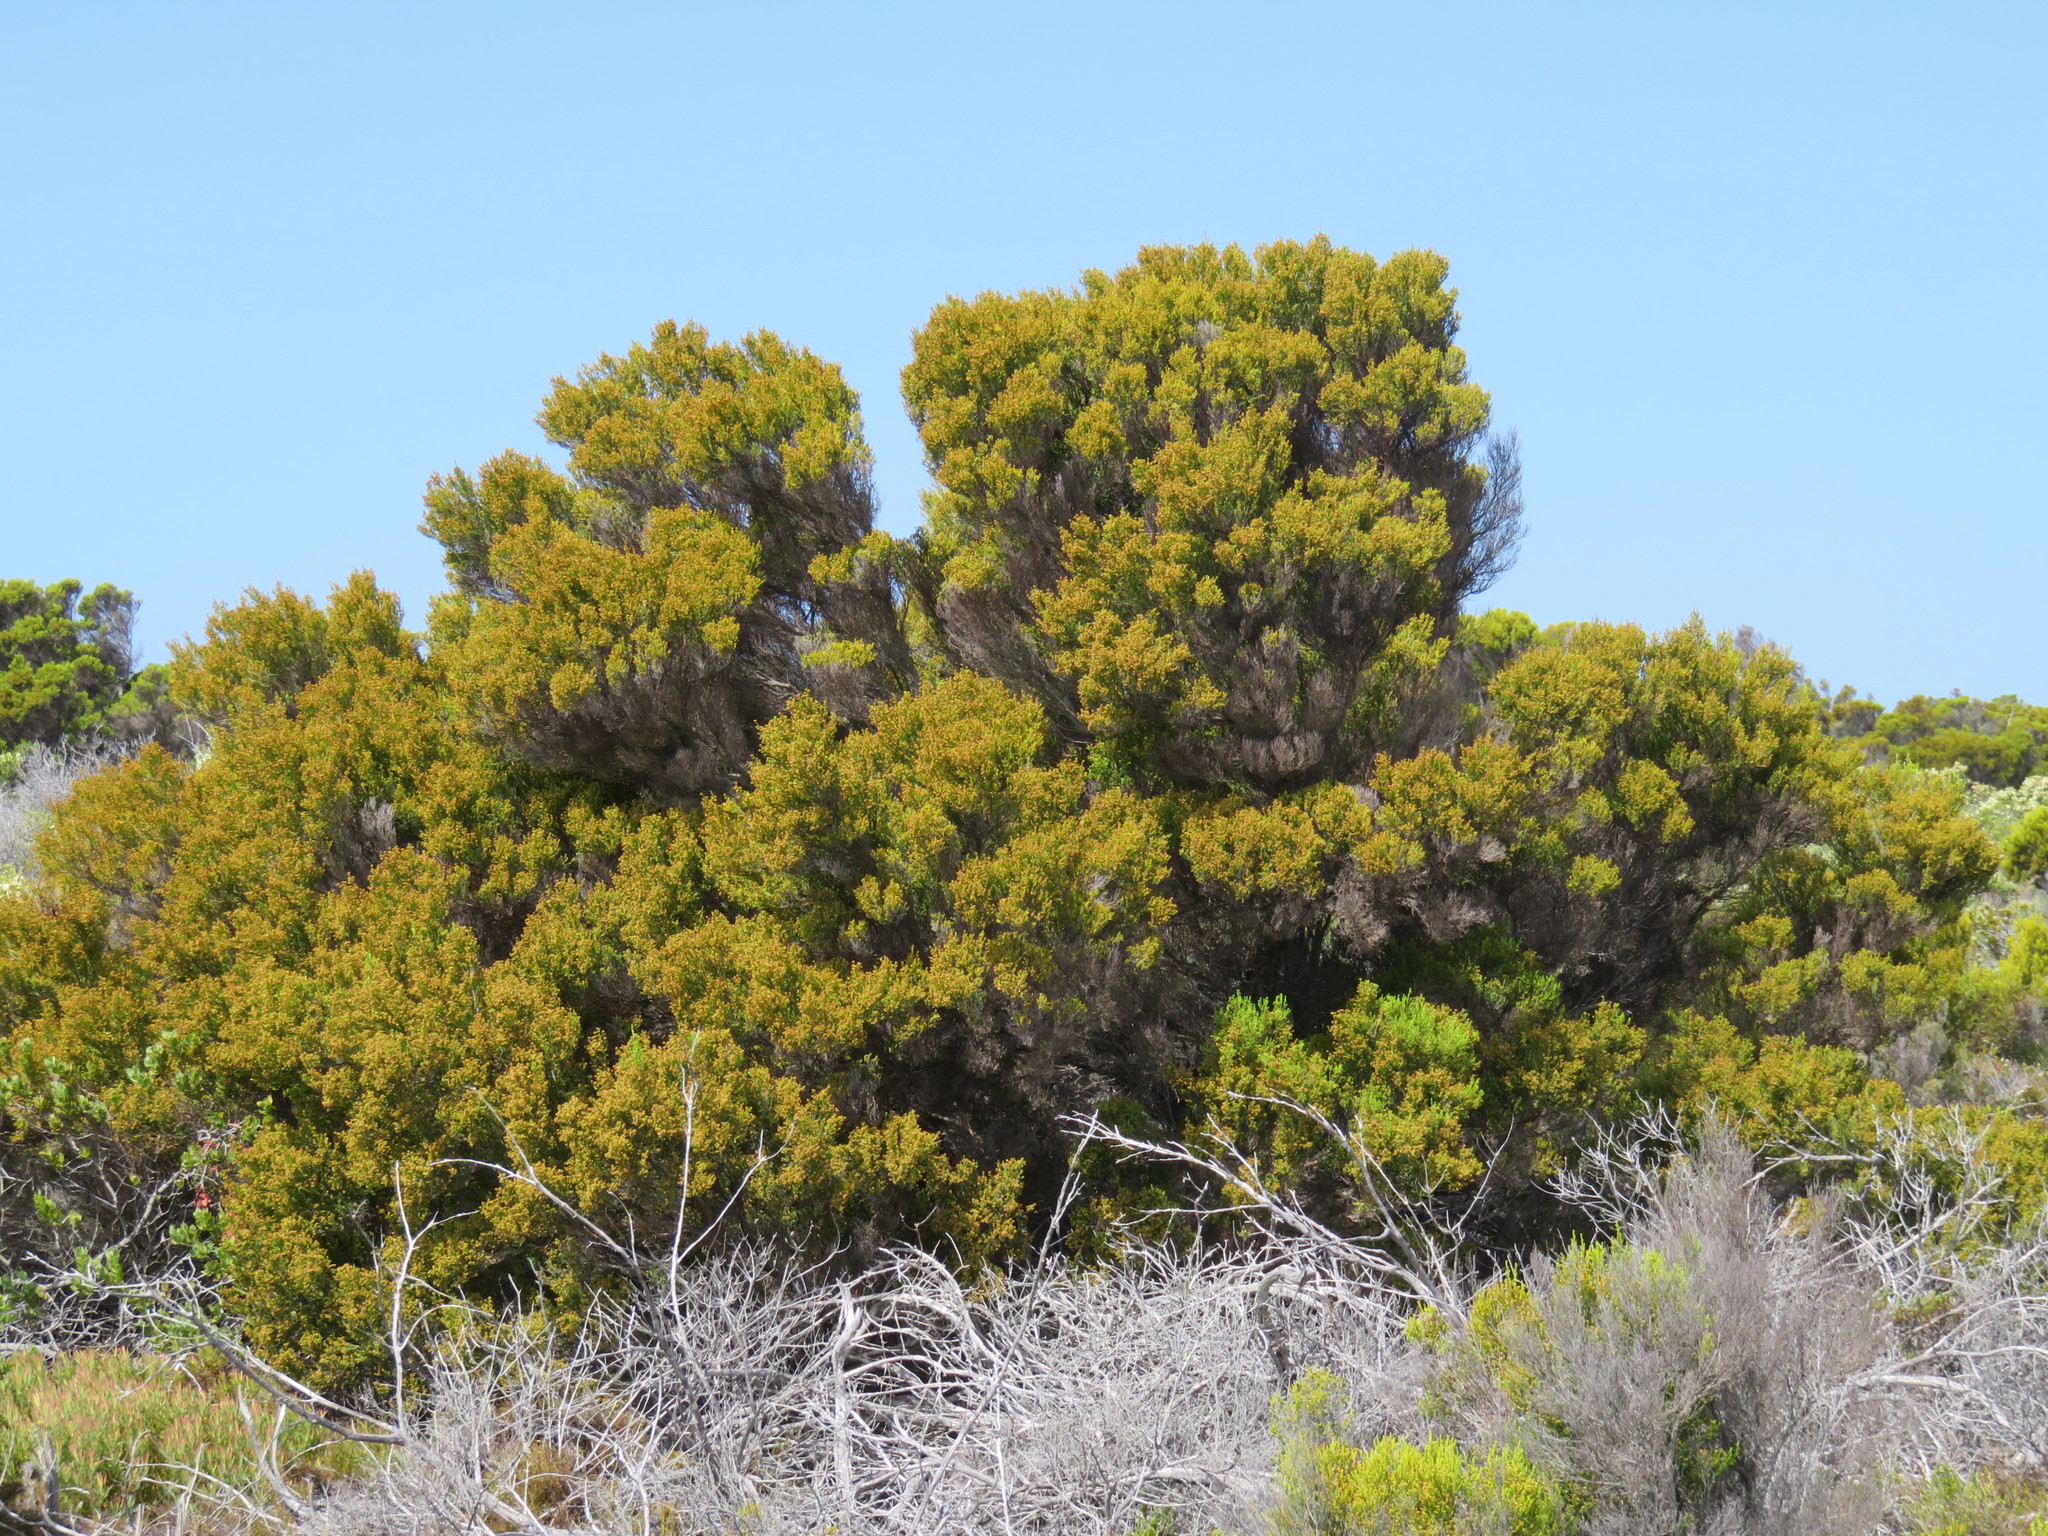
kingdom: Plantae
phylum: Tracheophyta
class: Magnoliopsida
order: Ericales
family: Ericaceae
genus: Erica
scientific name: Erica tristis
